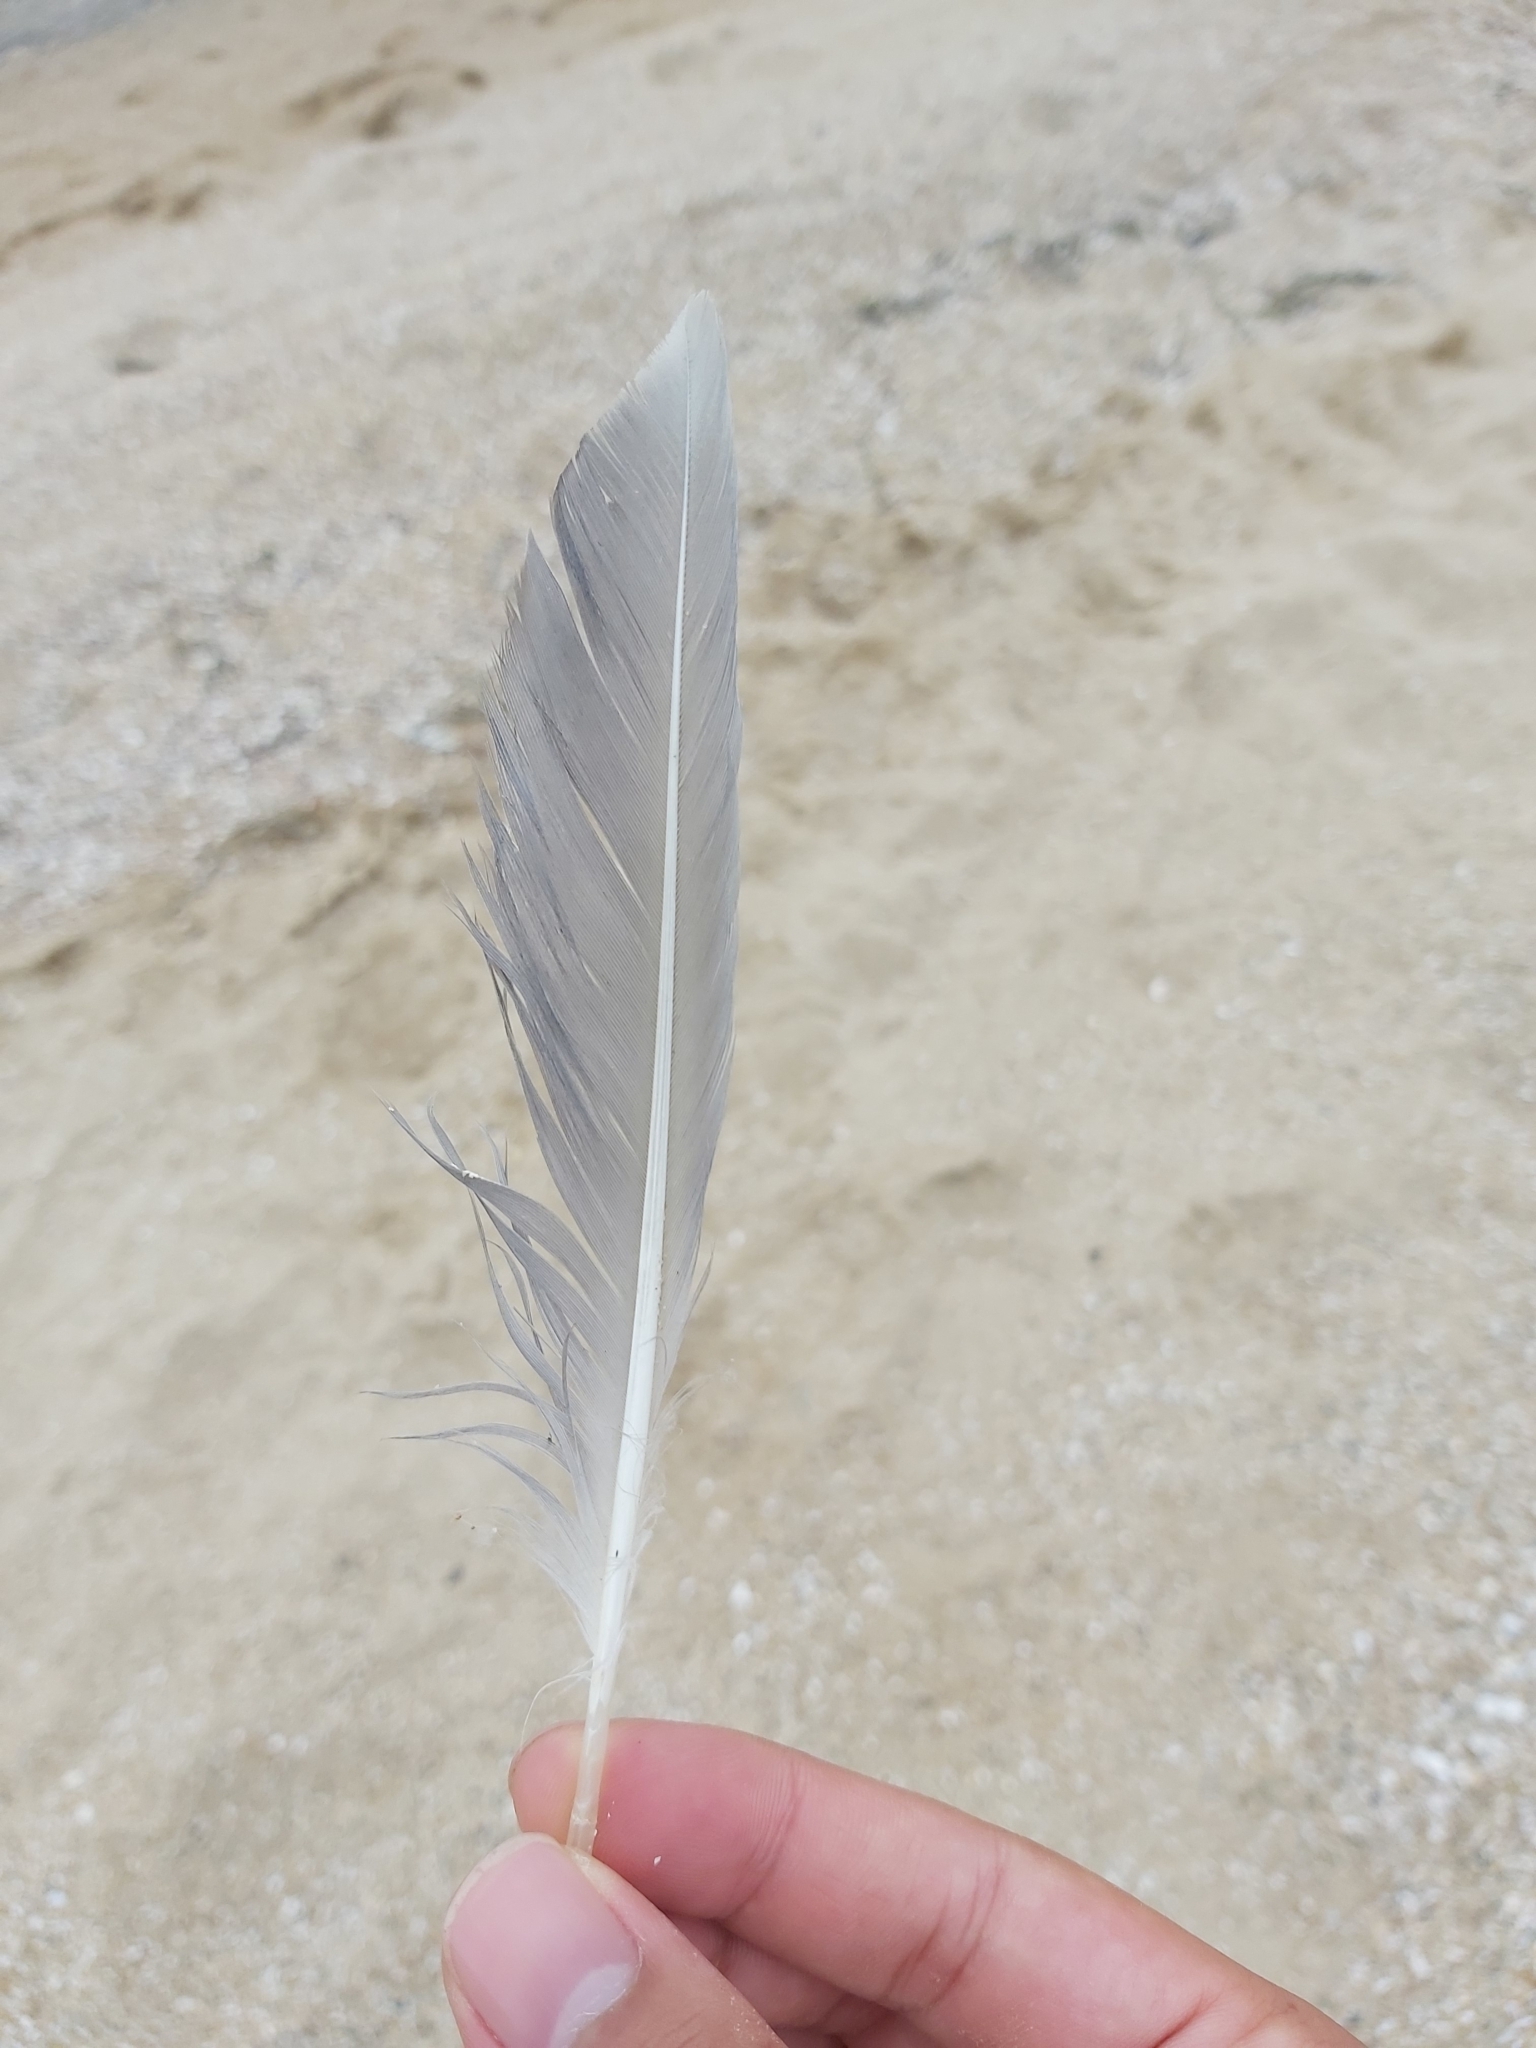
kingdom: Animalia
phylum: Chordata
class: Aves
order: Charadriiformes
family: Laridae
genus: Chroicocephalus
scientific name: Chroicocephalus novaehollandiae
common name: Silver gull
